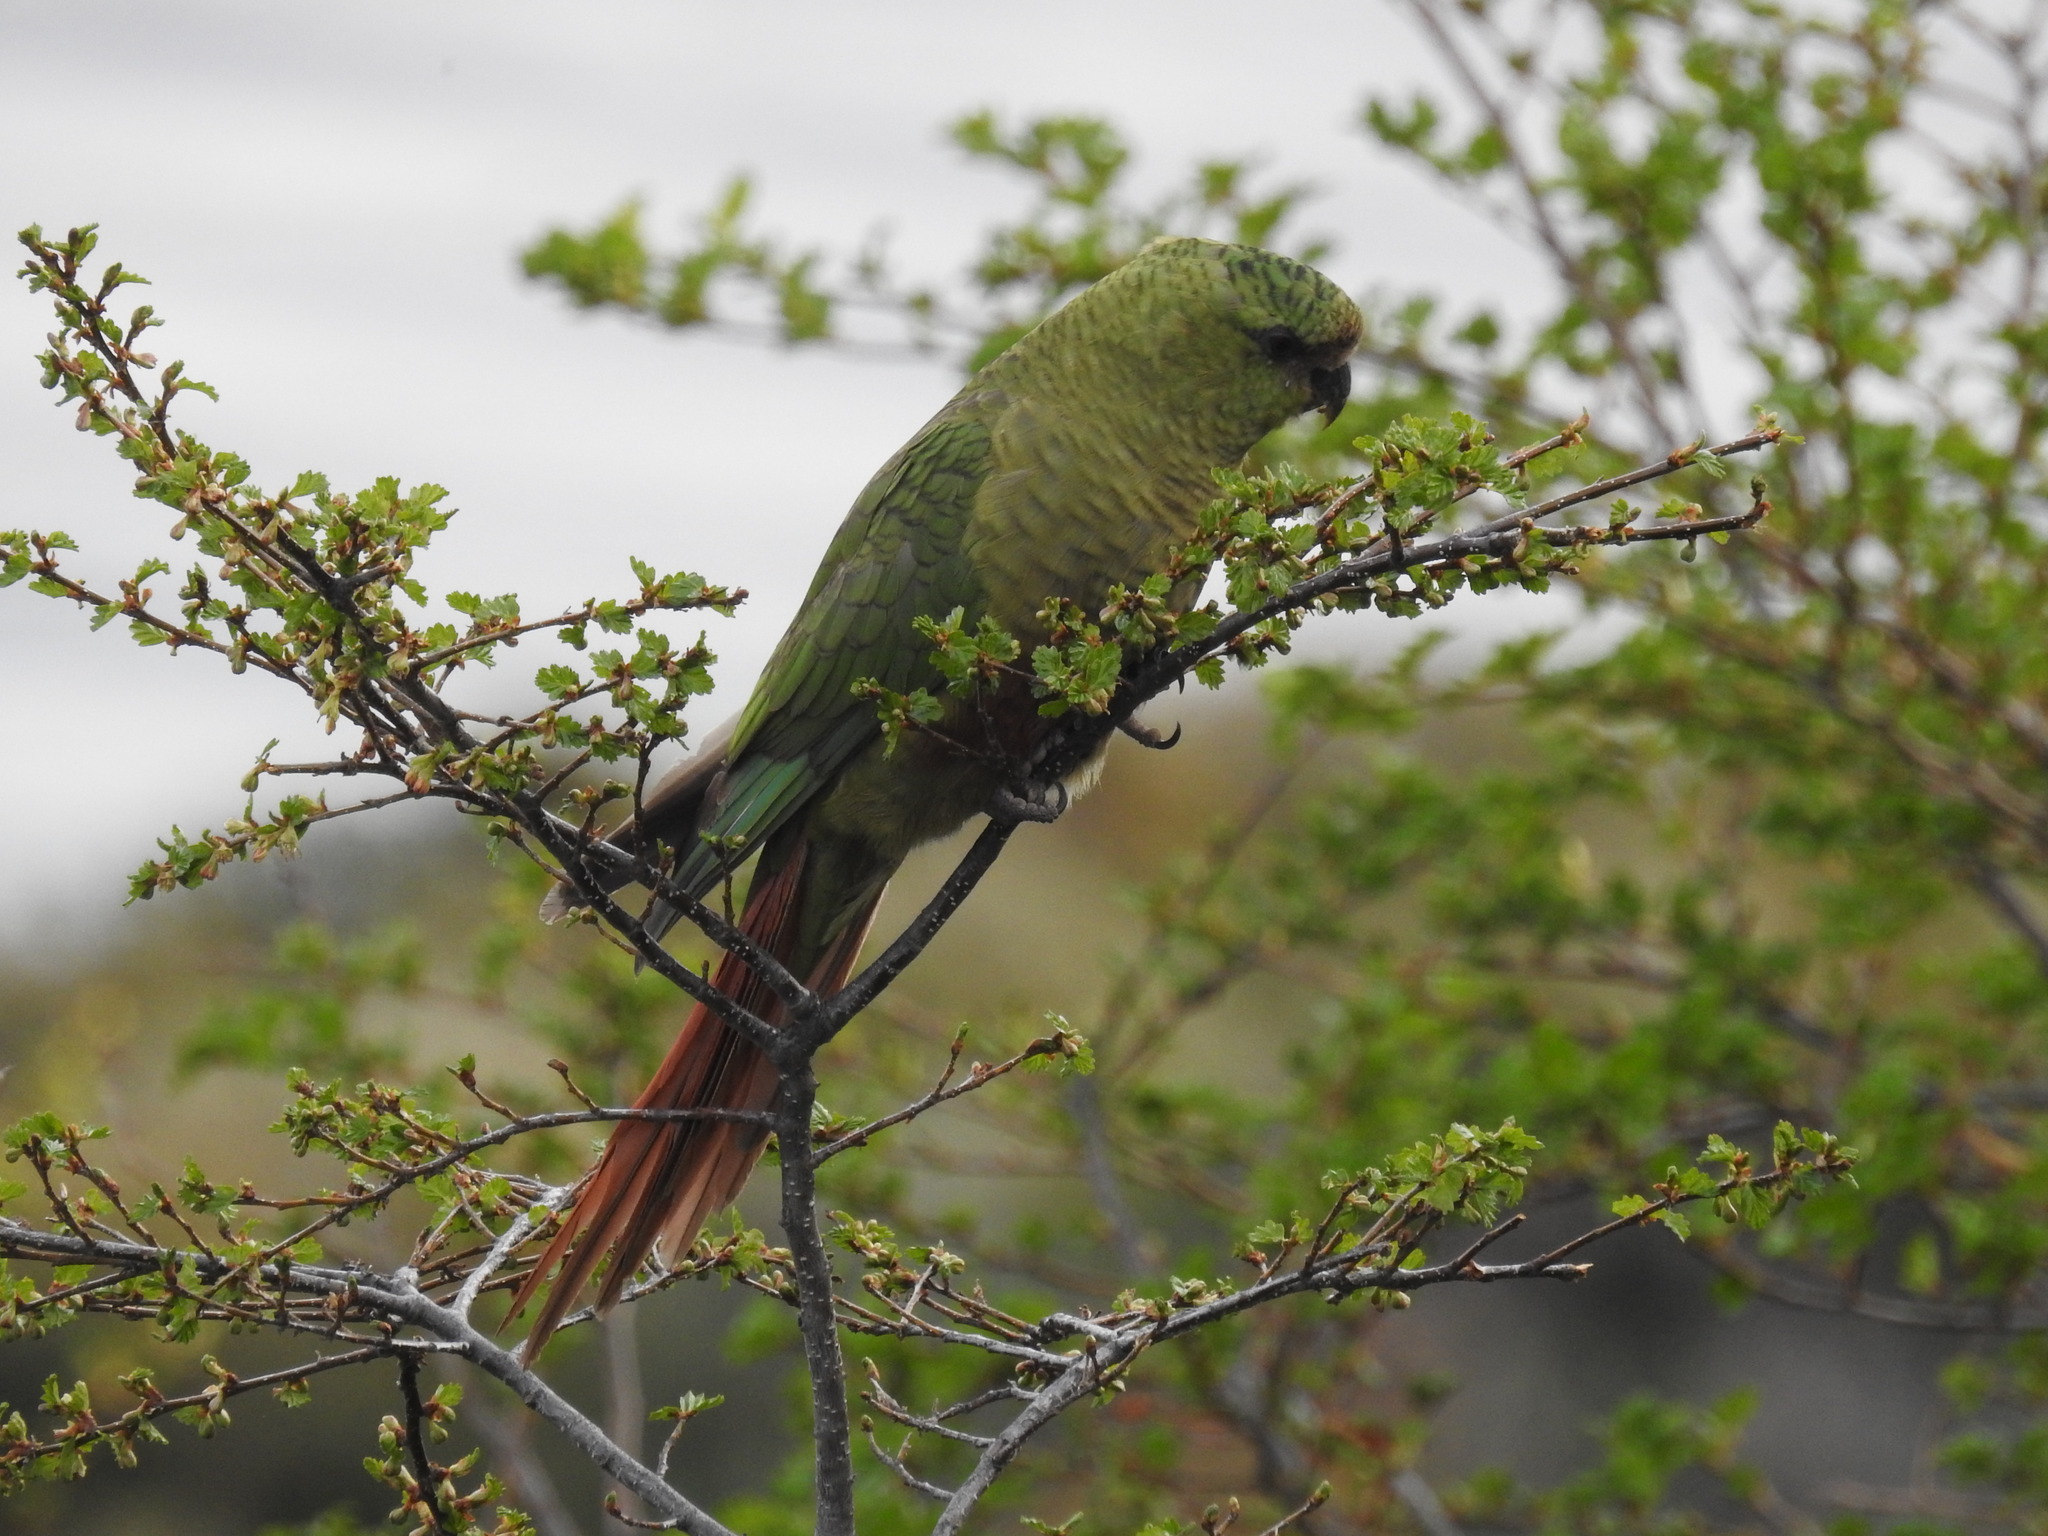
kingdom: Animalia
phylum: Chordata
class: Aves
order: Psittaciformes
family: Psittacidae
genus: Enicognathus
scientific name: Enicognathus ferrugineus
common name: Austral parakeet
